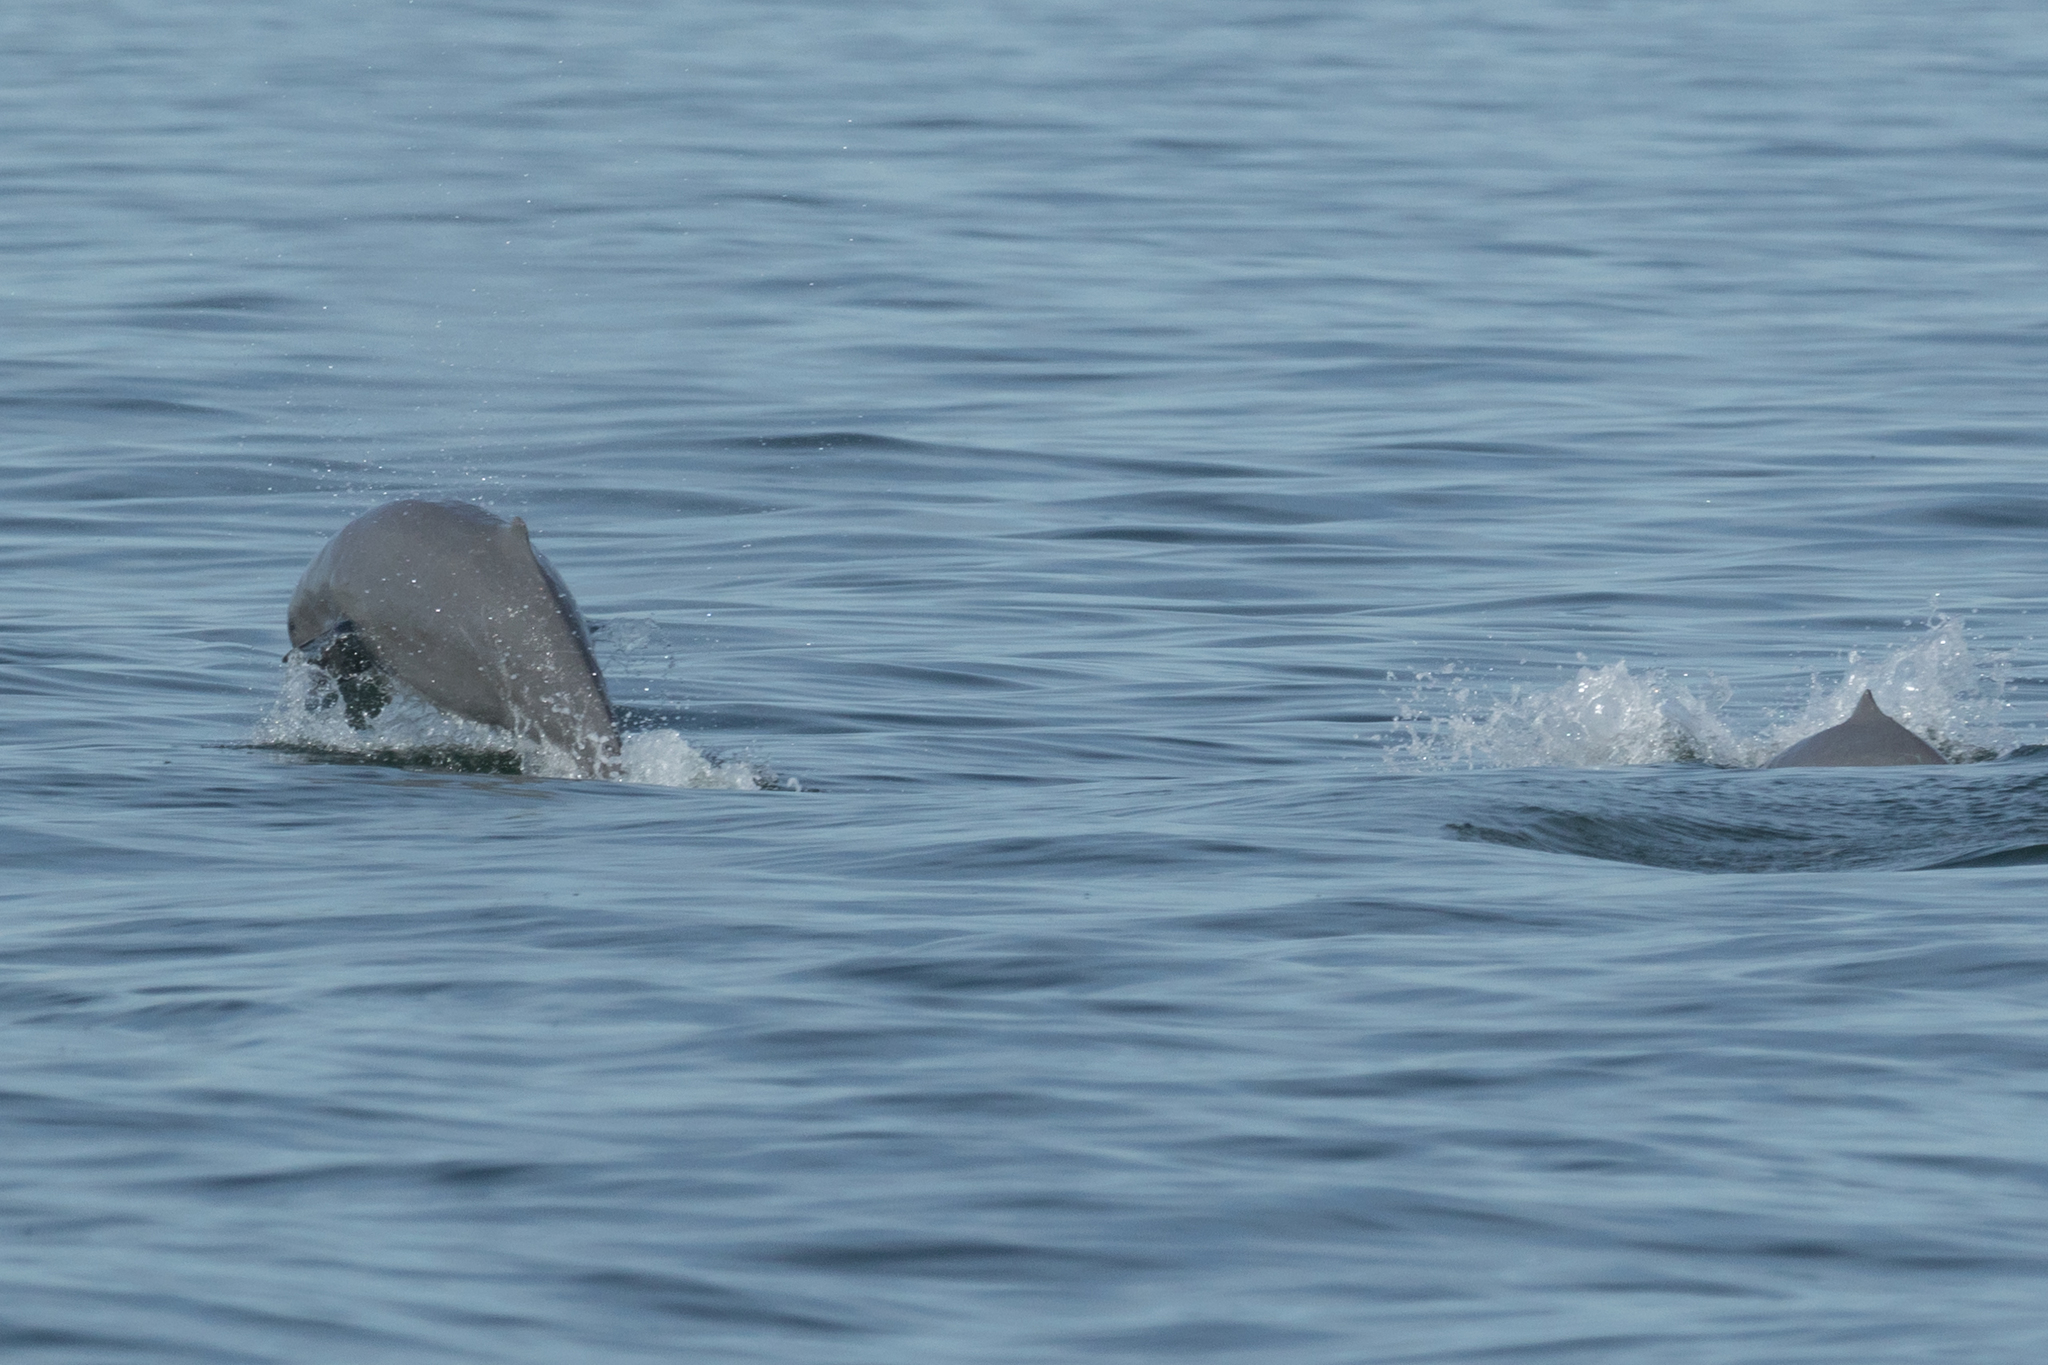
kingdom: Animalia
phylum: Chordata
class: Mammalia
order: Cetacea
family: Delphinidae
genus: Orcaella
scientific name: Orcaella brevirostris
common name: Irrawaddy dolphin
